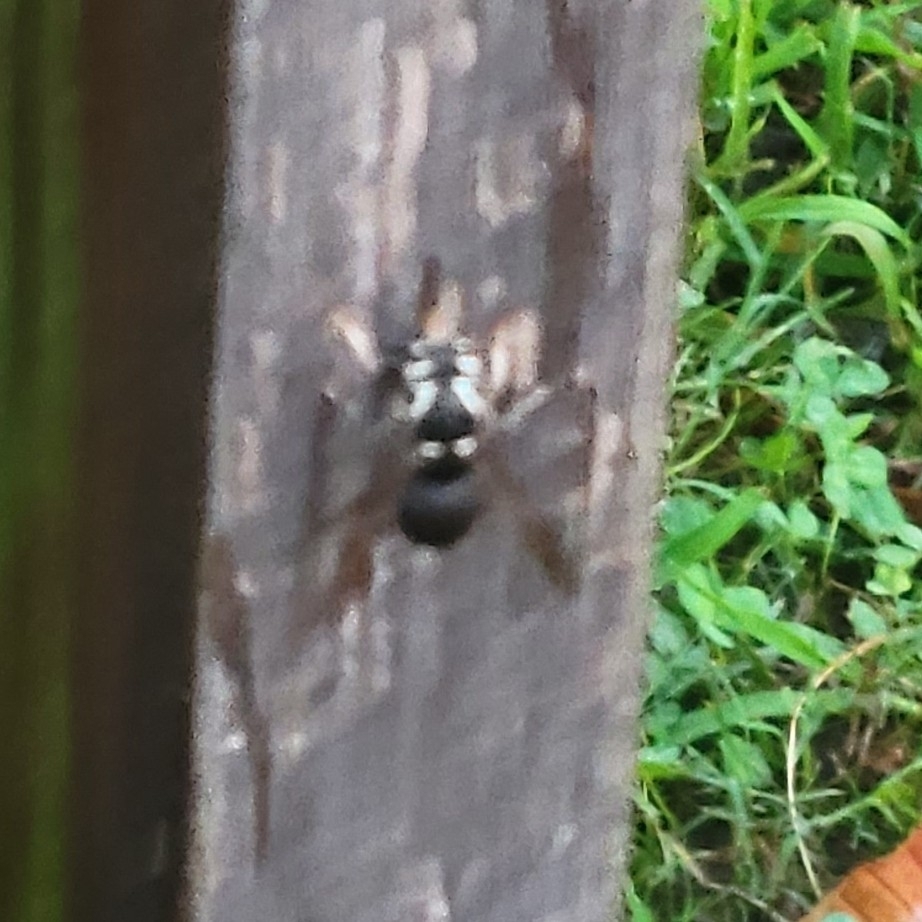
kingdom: Animalia
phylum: Arthropoda
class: Insecta
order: Hymenoptera
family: Vespidae
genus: Dolichovespula
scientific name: Dolichovespula maculata
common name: Bald-faced hornet
